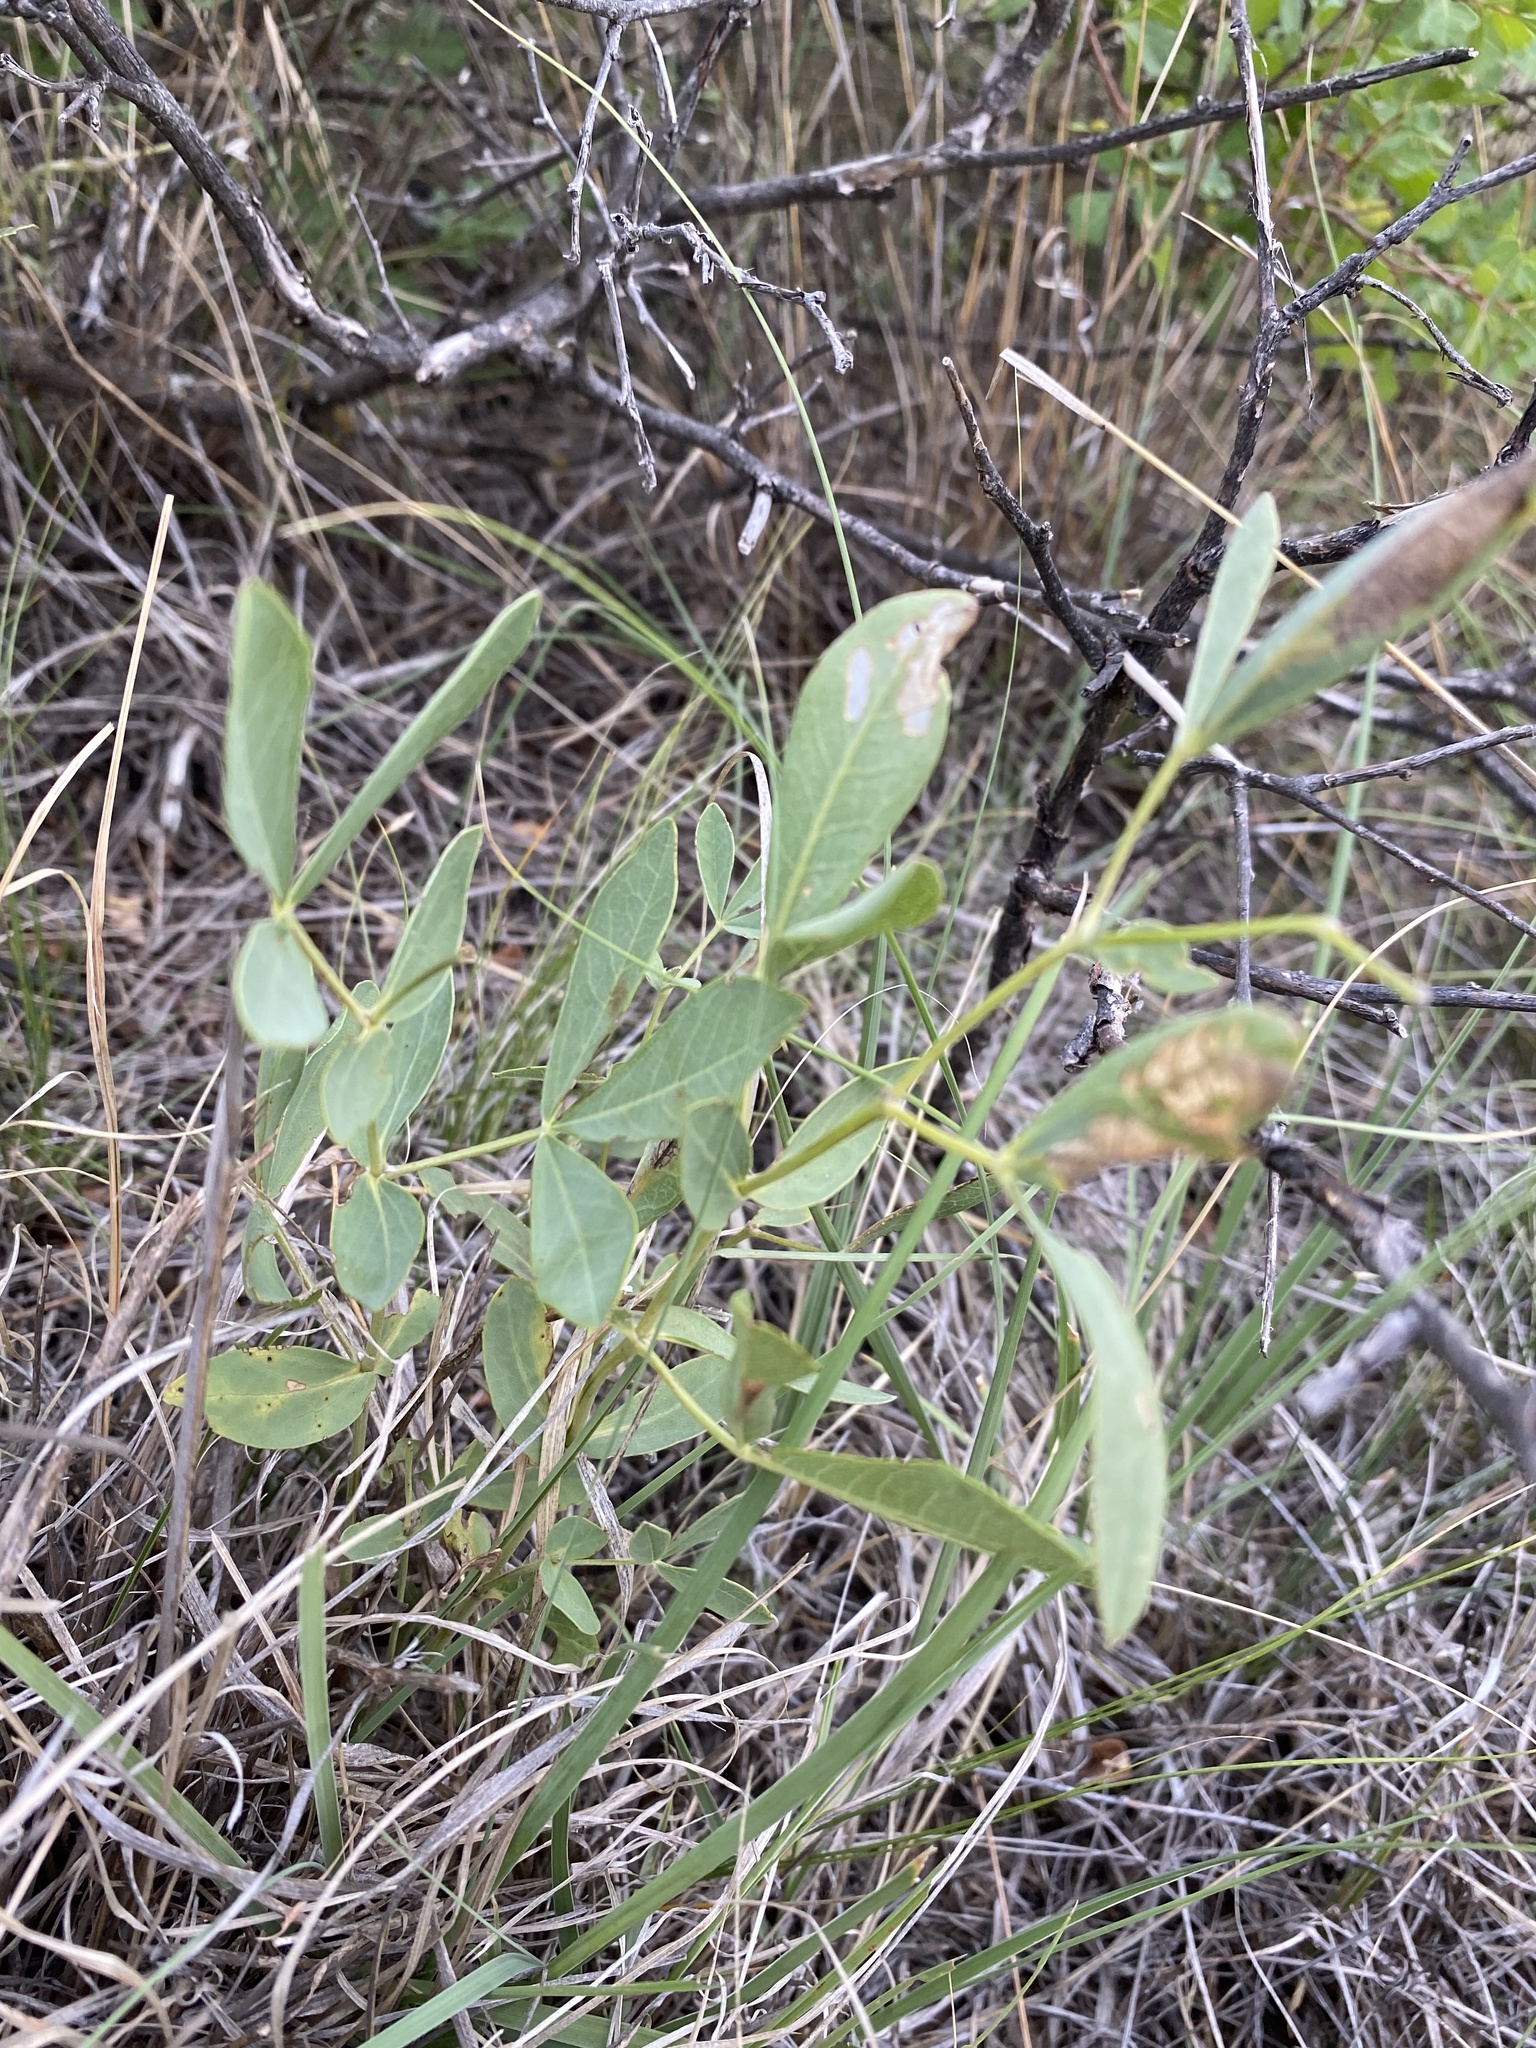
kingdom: Plantae
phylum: Tracheophyta
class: Magnoliopsida
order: Fabales
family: Fabaceae
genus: Thermopsis
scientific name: Thermopsis rhombifolia
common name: Circle-pod-pea
